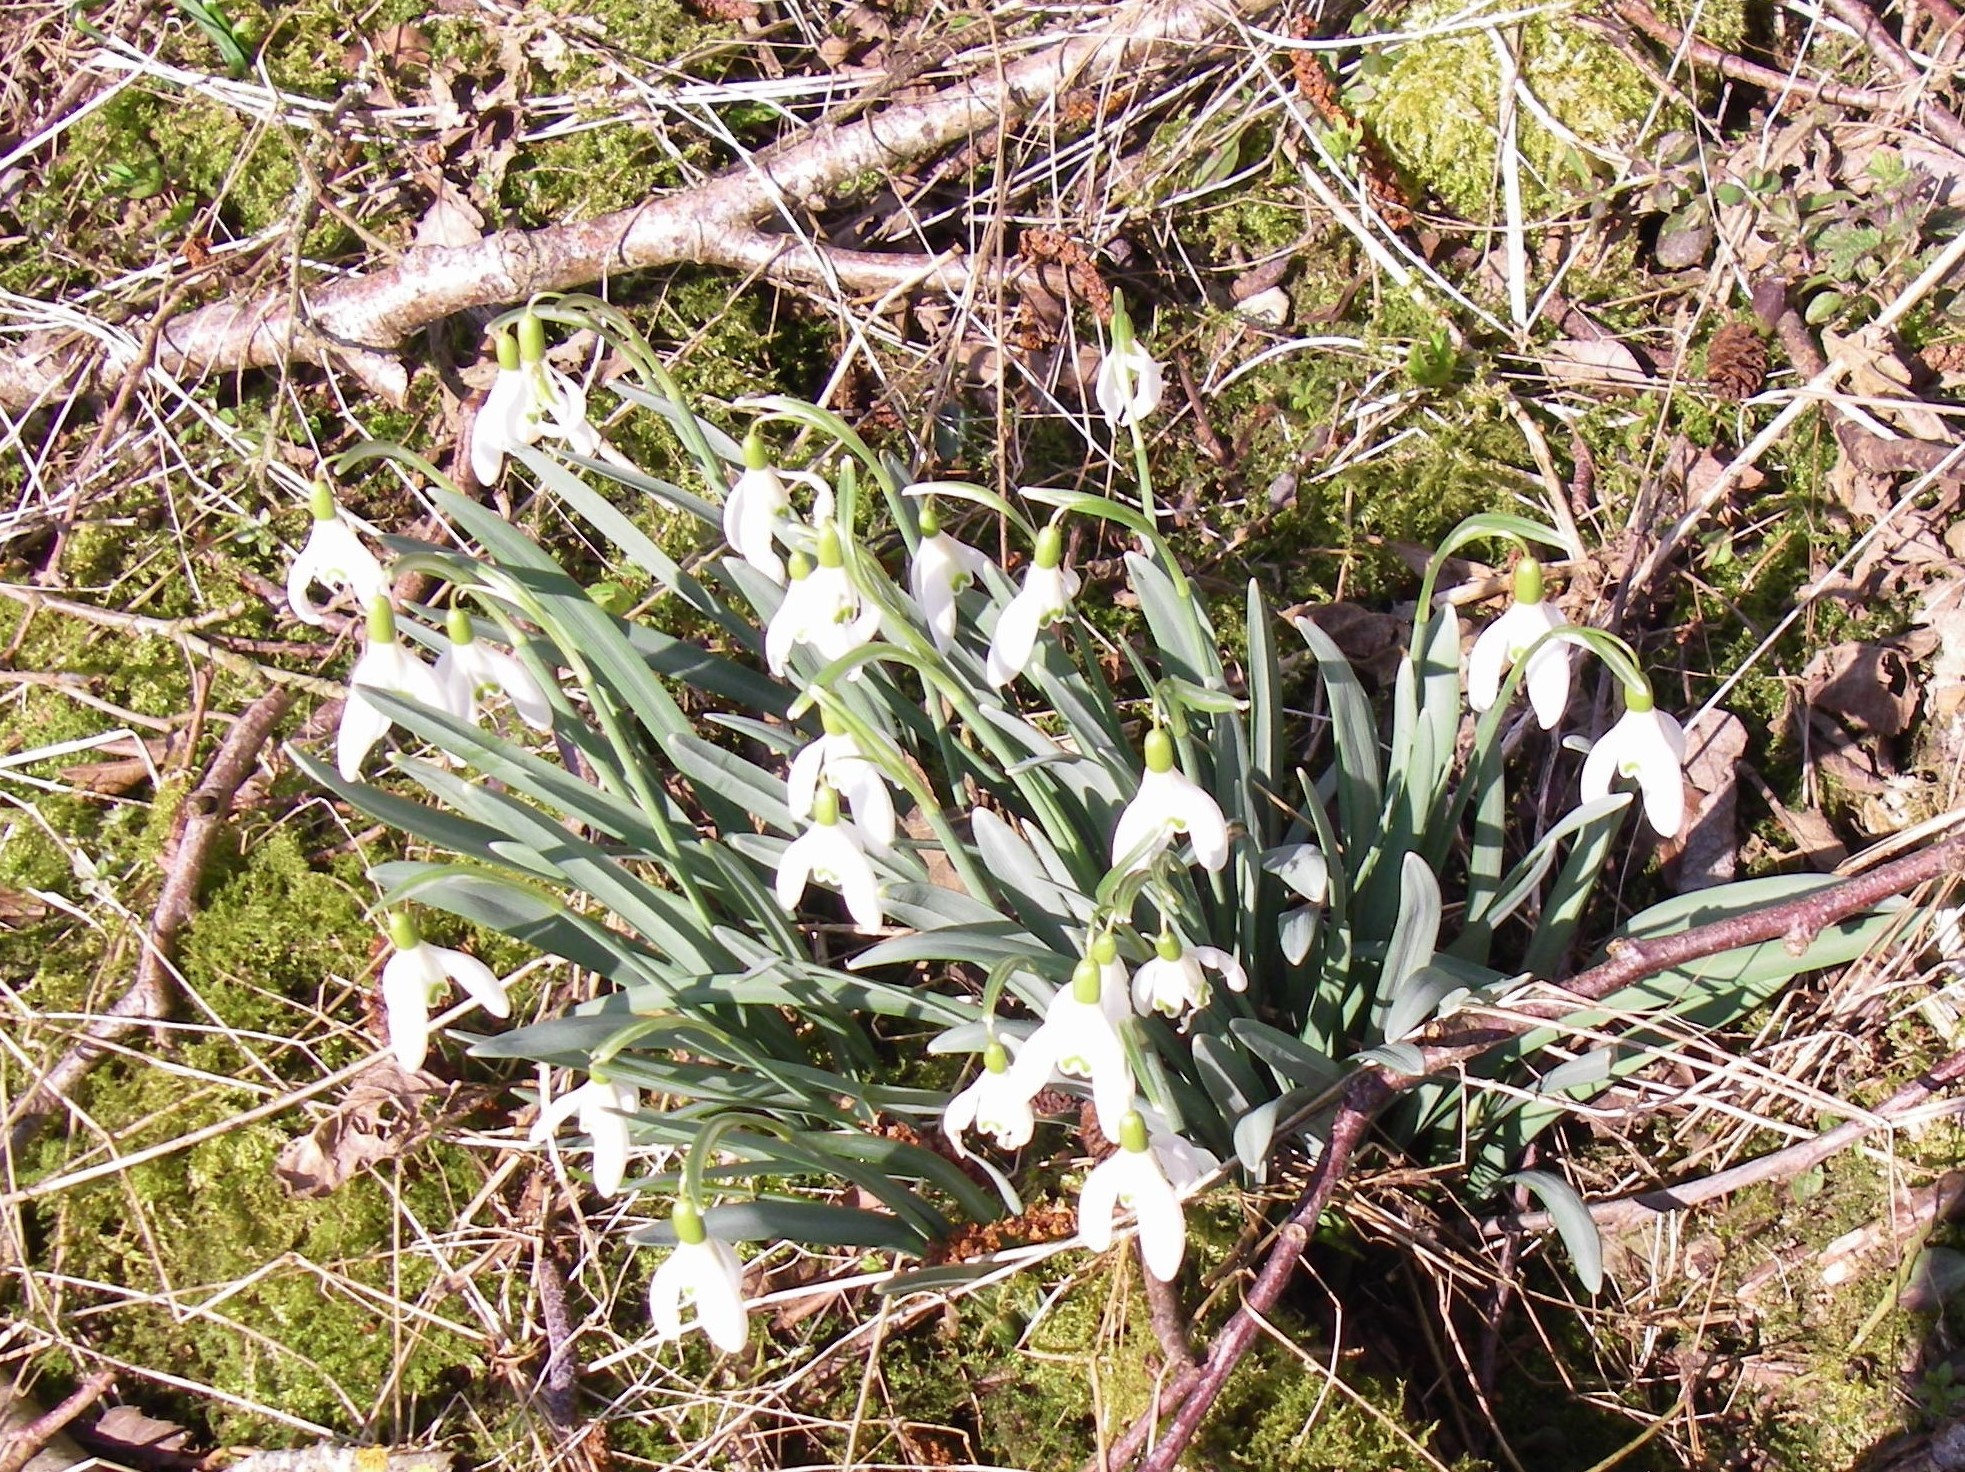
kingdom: Plantae
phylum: Tracheophyta
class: Liliopsida
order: Asparagales
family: Amaryllidaceae
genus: Galanthus
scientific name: Galanthus nivalis
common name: Snowdrop
